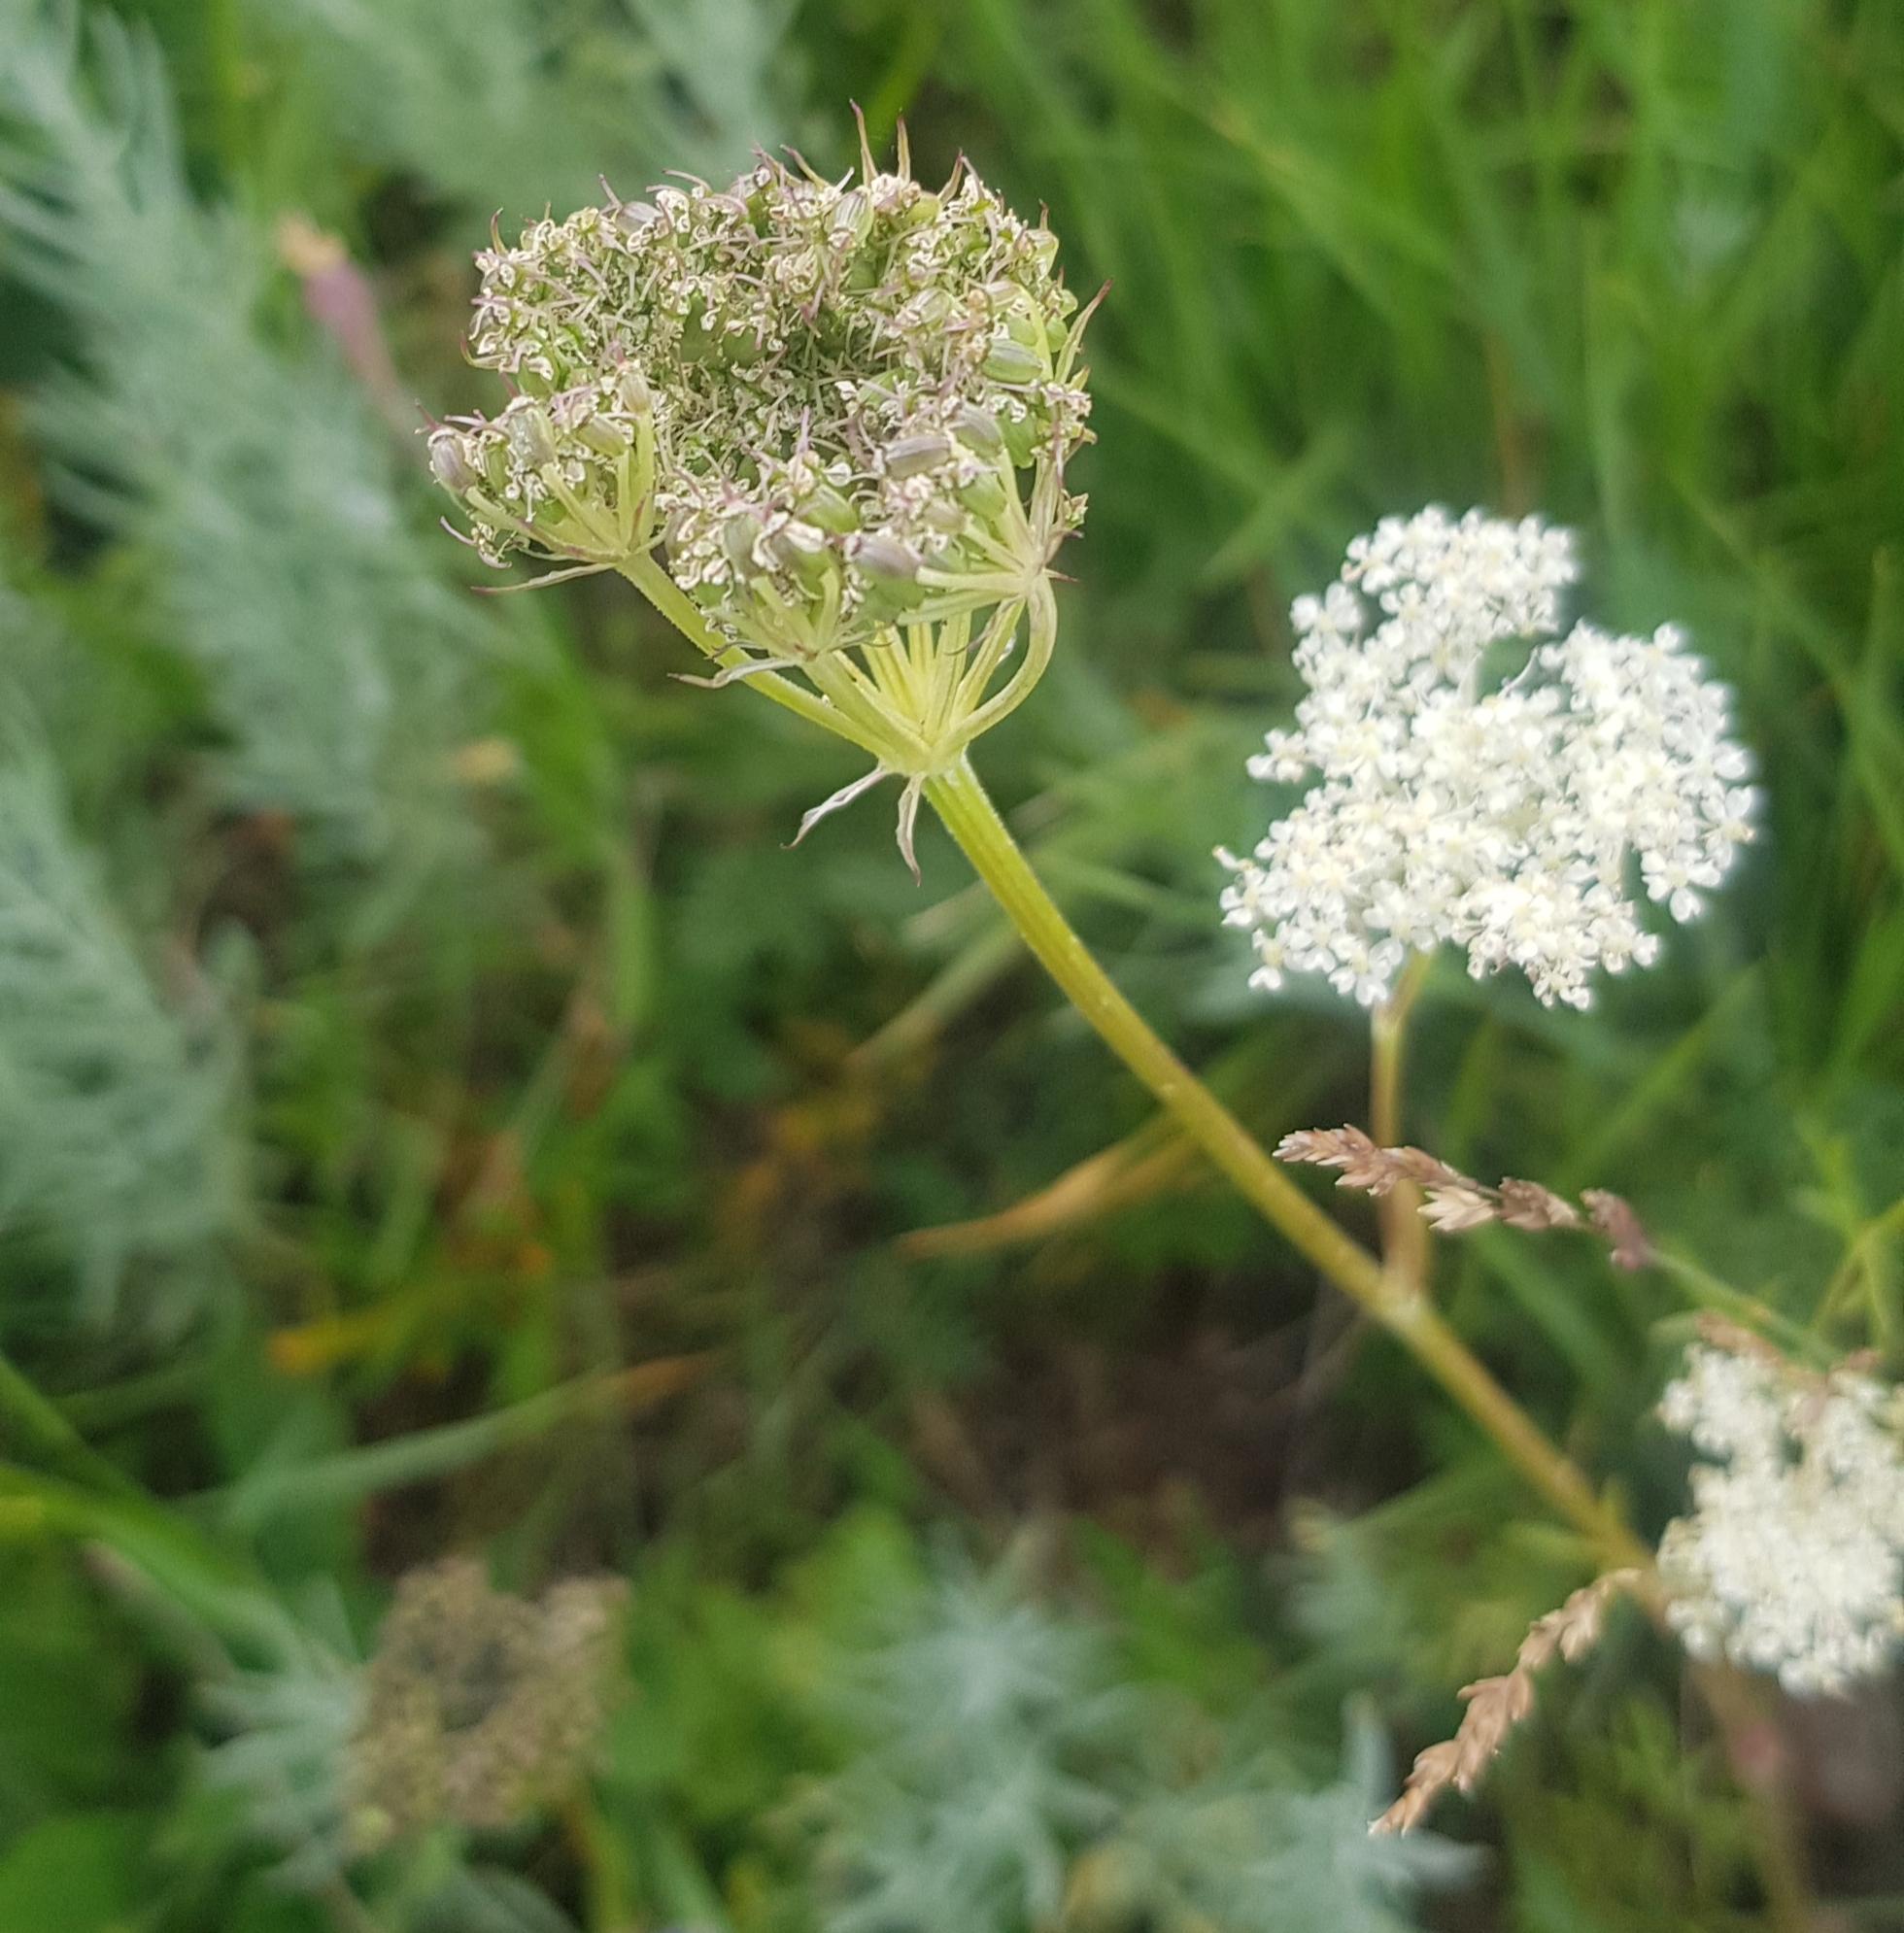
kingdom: Plantae
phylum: Tracheophyta
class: Magnoliopsida
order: Apiales
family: Apiaceae
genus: Kitagawia
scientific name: Kitagawia baicalensis
